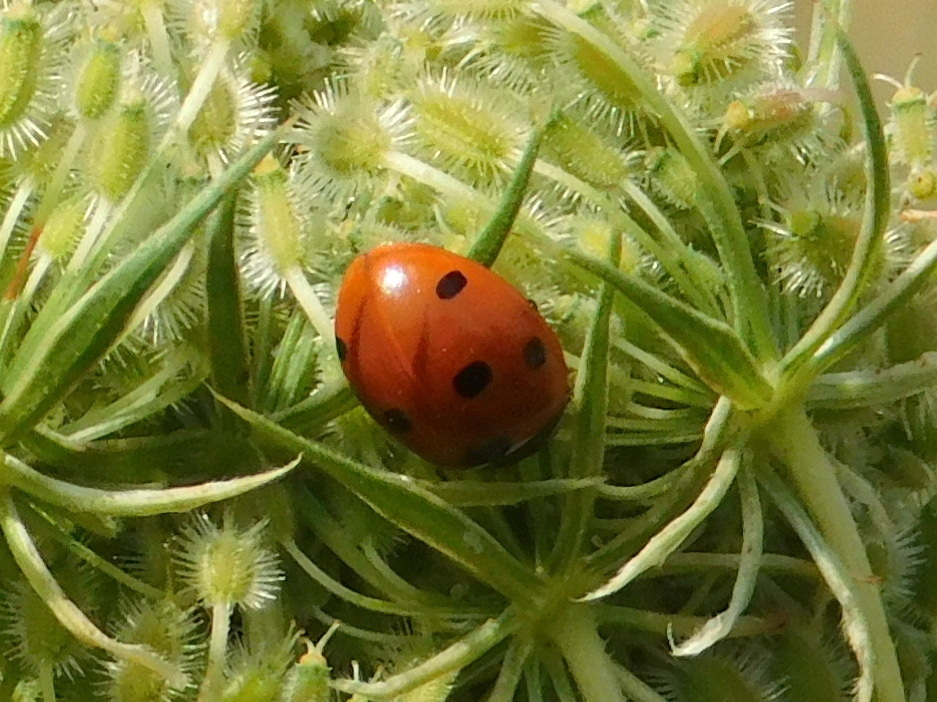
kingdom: Animalia
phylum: Arthropoda
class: Insecta
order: Coleoptera
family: Coccinellidae
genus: Coccinella
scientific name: Coccinella septempunctata
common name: Sevenspotted lady beetle
